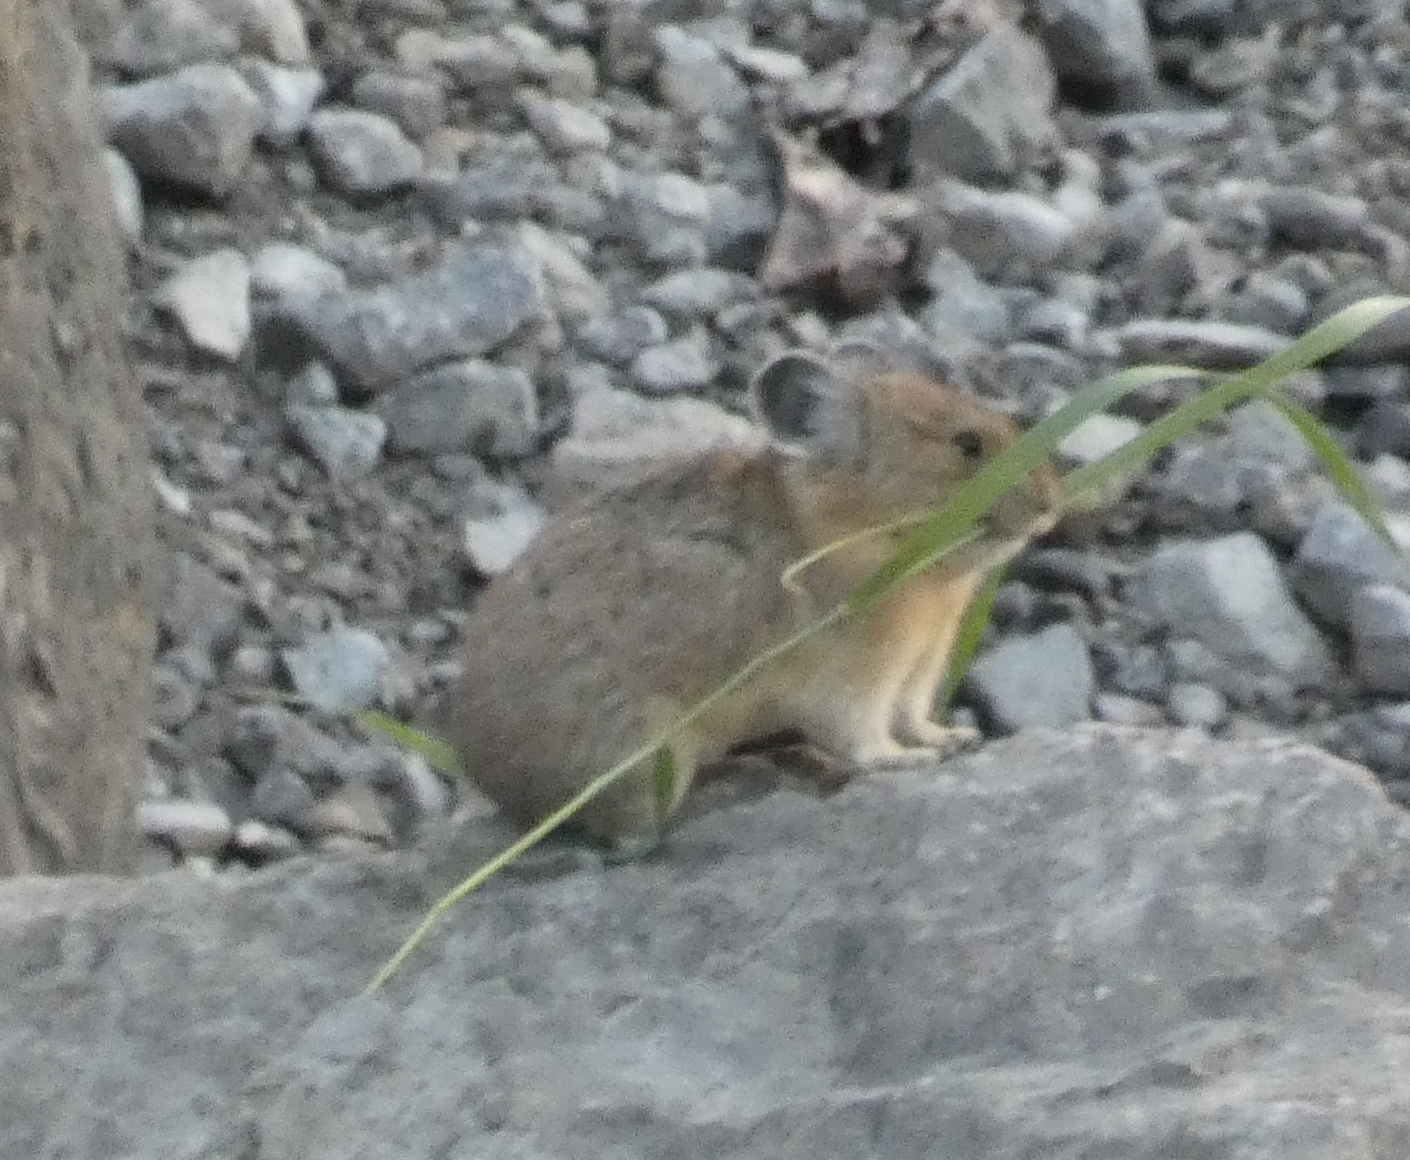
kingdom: Animalia
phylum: Chordata
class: Mammalia
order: Lagomorpha
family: Ochotonidae
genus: Ochotona
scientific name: Ochotona princeps
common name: American pika
